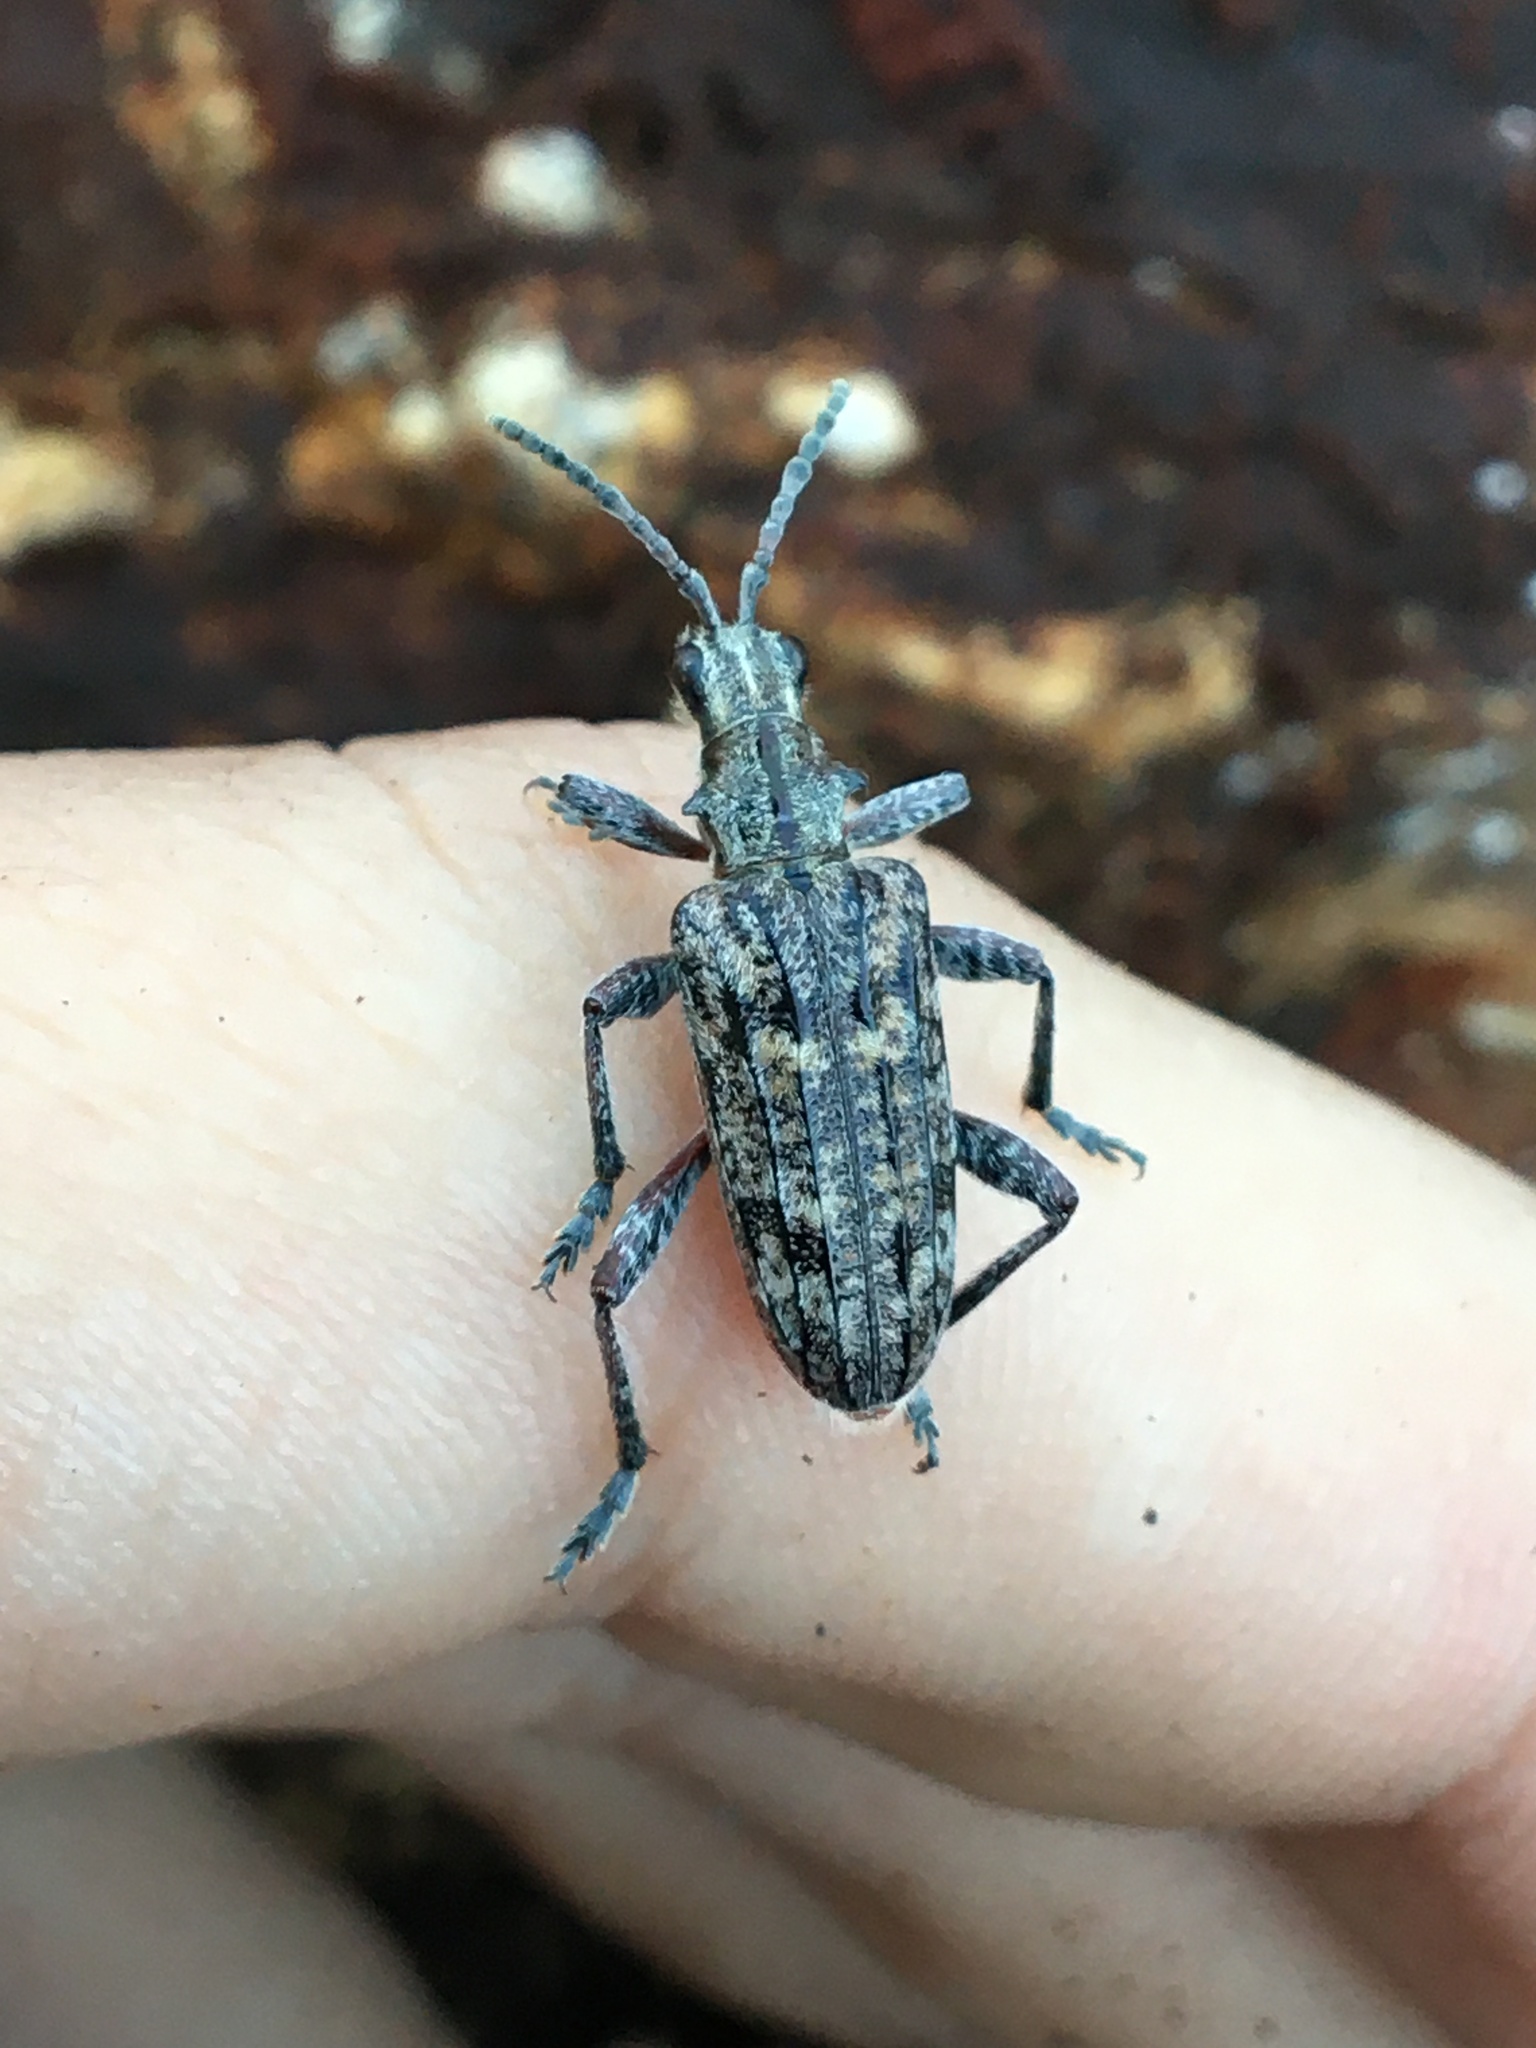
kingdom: Animalia
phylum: Arthropoda
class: Insecta
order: Coleoptera
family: Cerambycidae
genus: Rhagium
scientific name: Rhagium inquisitor
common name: Ribbed pine borer
